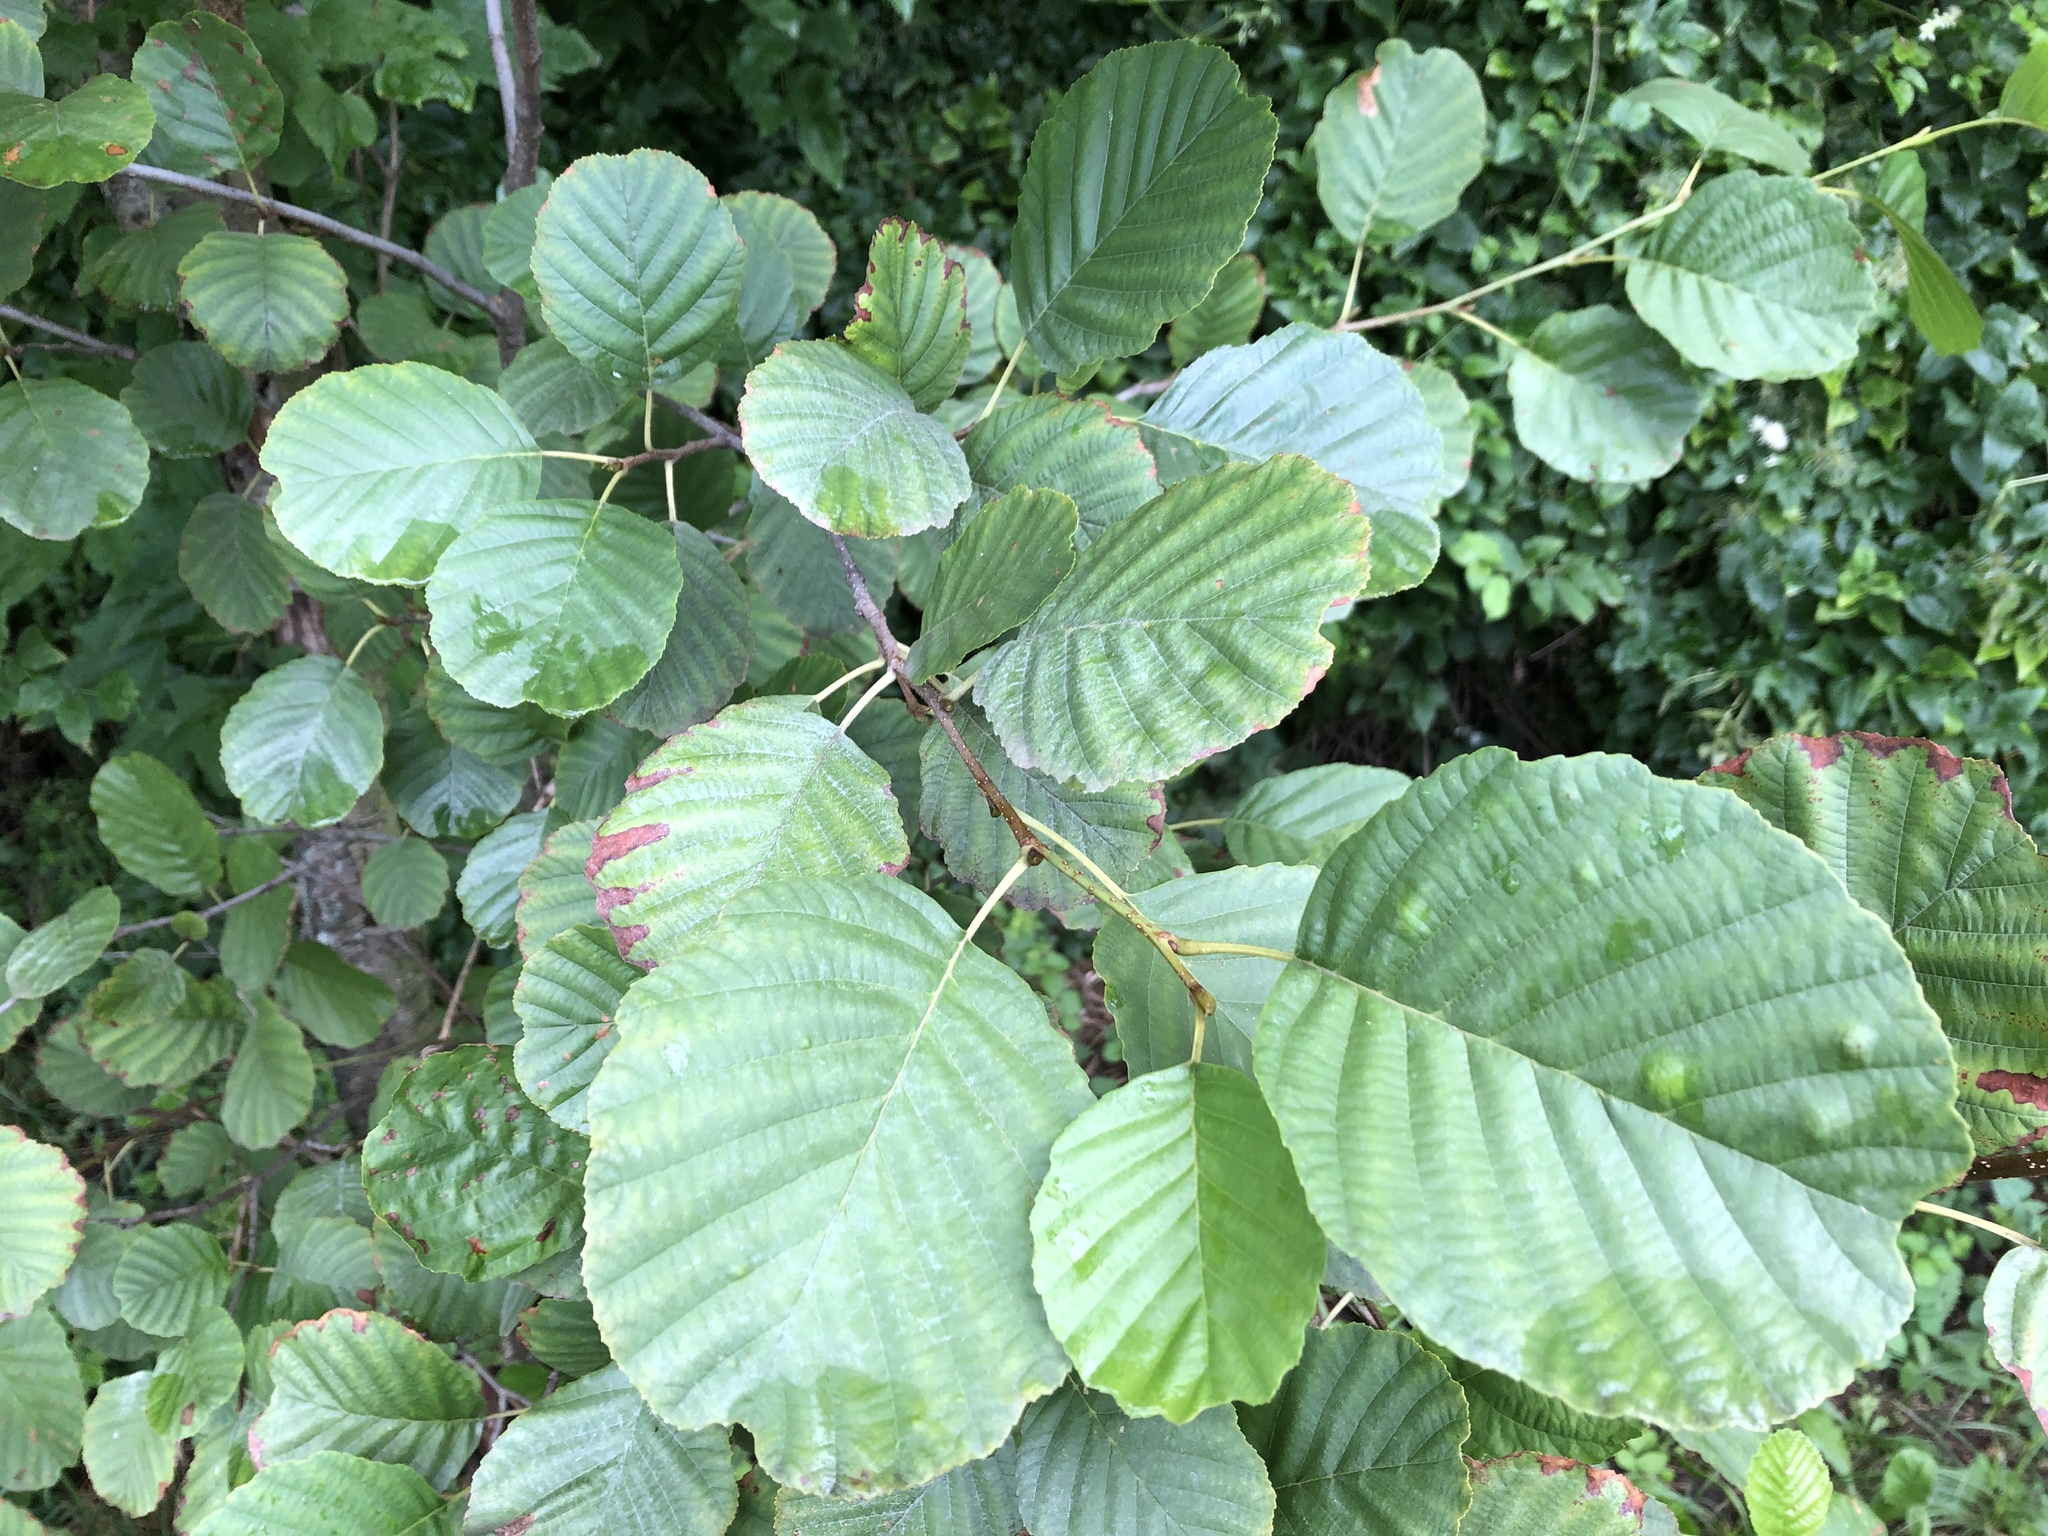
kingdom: Plantae
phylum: Tracheophyta
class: Magnoliopsida
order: Fagales
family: Betulaceae
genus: Alnus
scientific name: Alnus glutinosa
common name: Black alder
